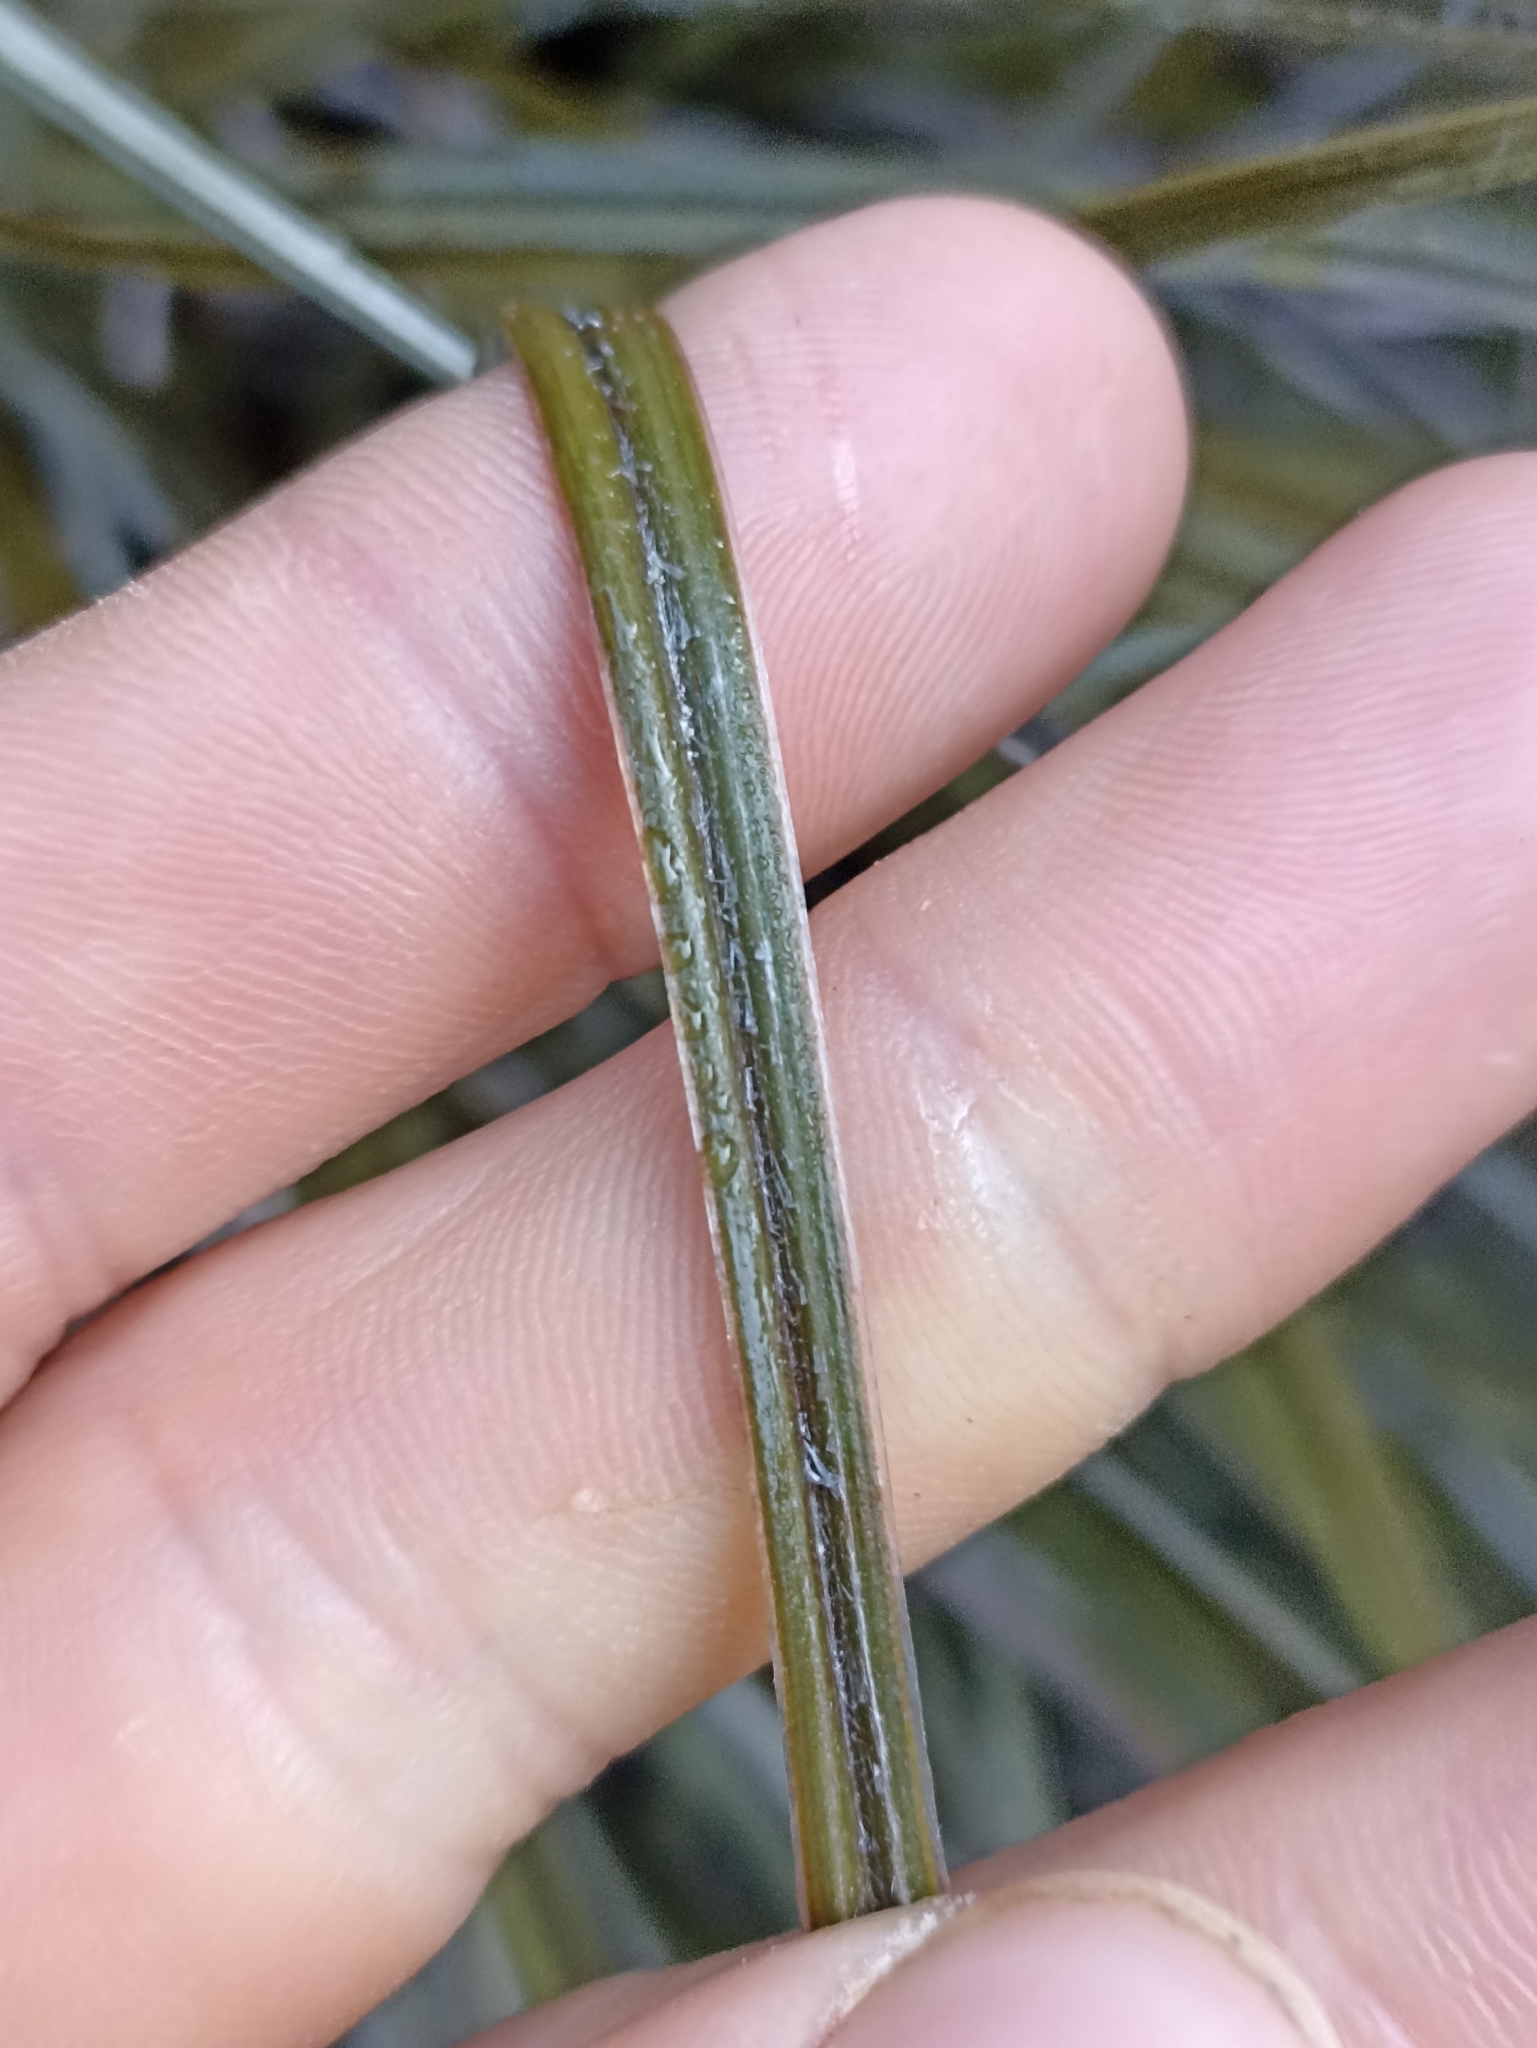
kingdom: Plantae
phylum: Tracheophyta
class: Liliopsida
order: Asparagales
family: Asteliaceae
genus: Astelia
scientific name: Astelia graminea
